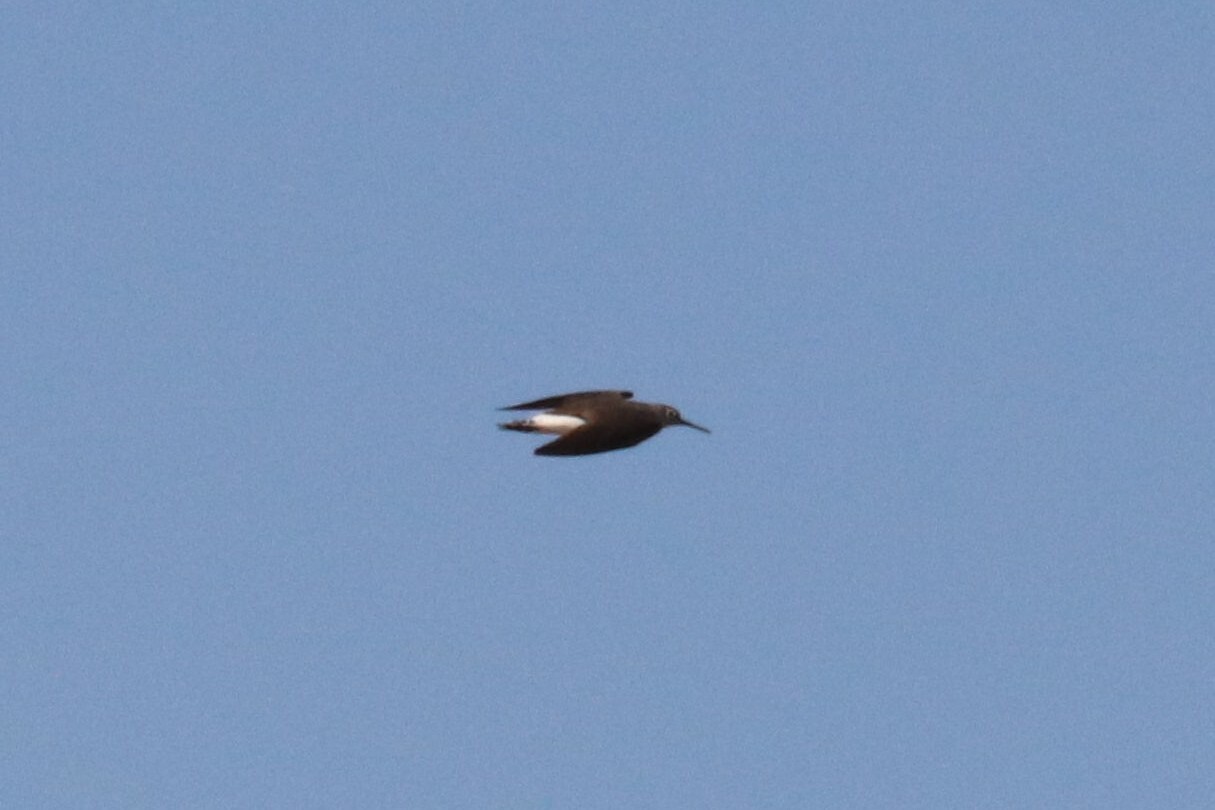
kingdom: Animalia
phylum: Chordata
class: Aves
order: Charadriiformes
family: Scolopacidae
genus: Tringa
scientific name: Tringa ochropus
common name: Green sandpiper
